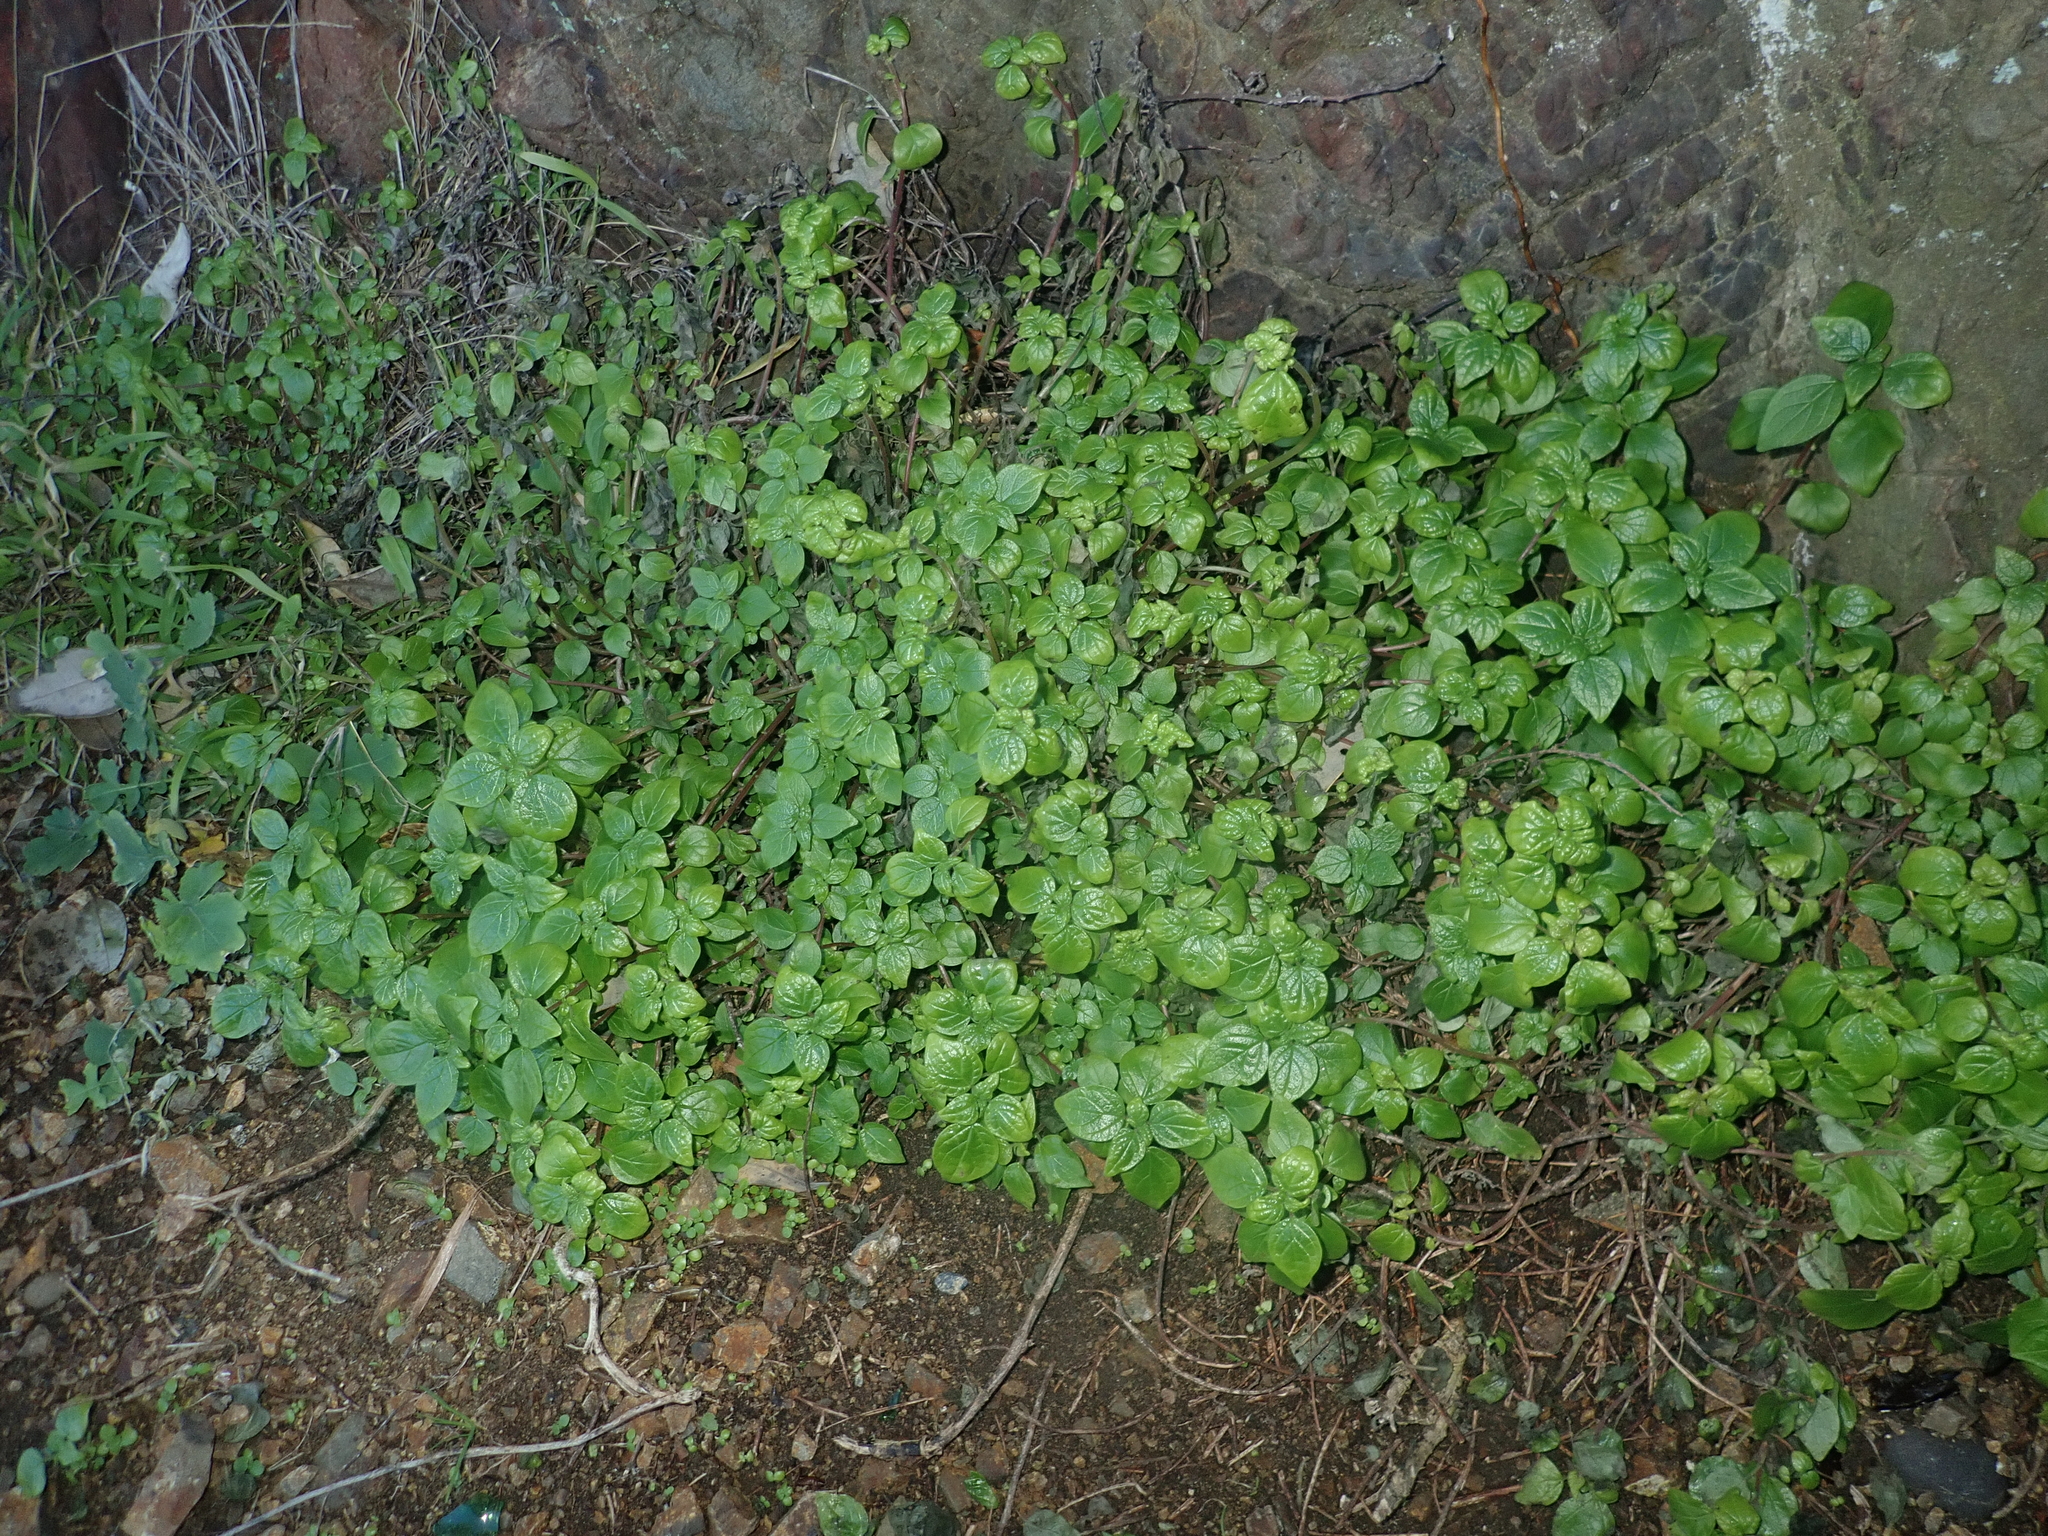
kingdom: Plantae
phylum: Tracheophyta
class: Magnoliopsida
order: Rosales
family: Urticaceae
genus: Parietaria
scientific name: Parietaria judaica
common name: Pellitory-of-the-wall
